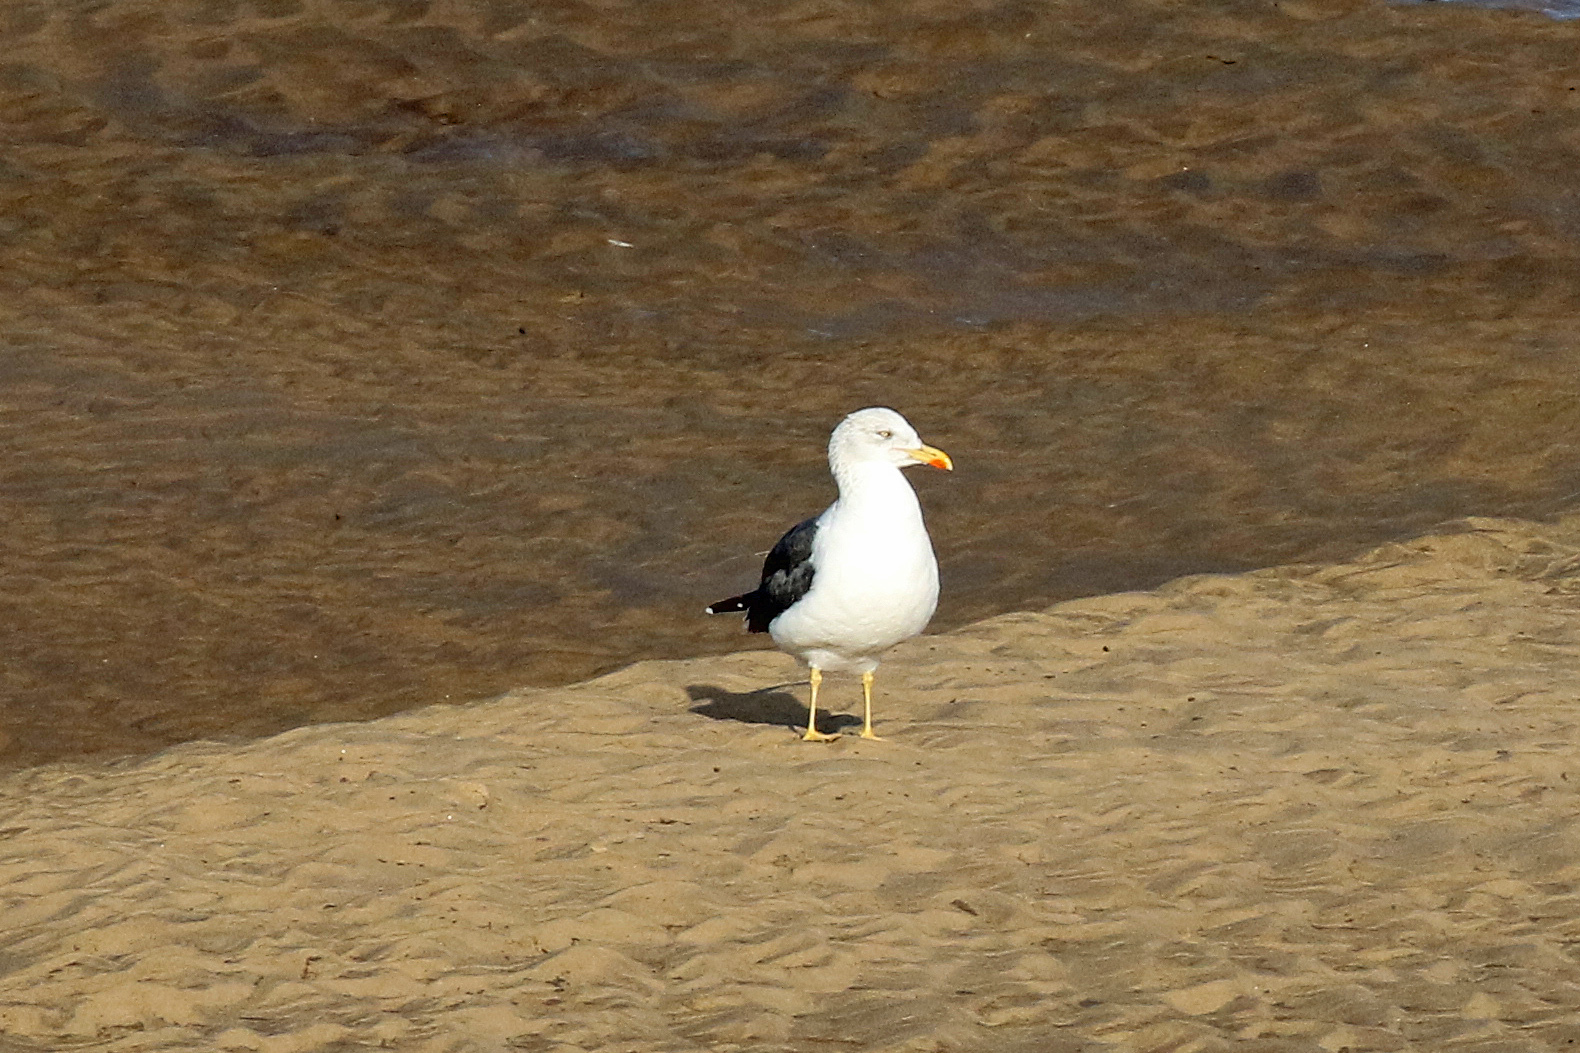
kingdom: Animalia
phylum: Chordata
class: Aves
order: Charadriiformes
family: Laridae
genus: Larus
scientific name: Larus fuscus
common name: Lesser black-backed gull
